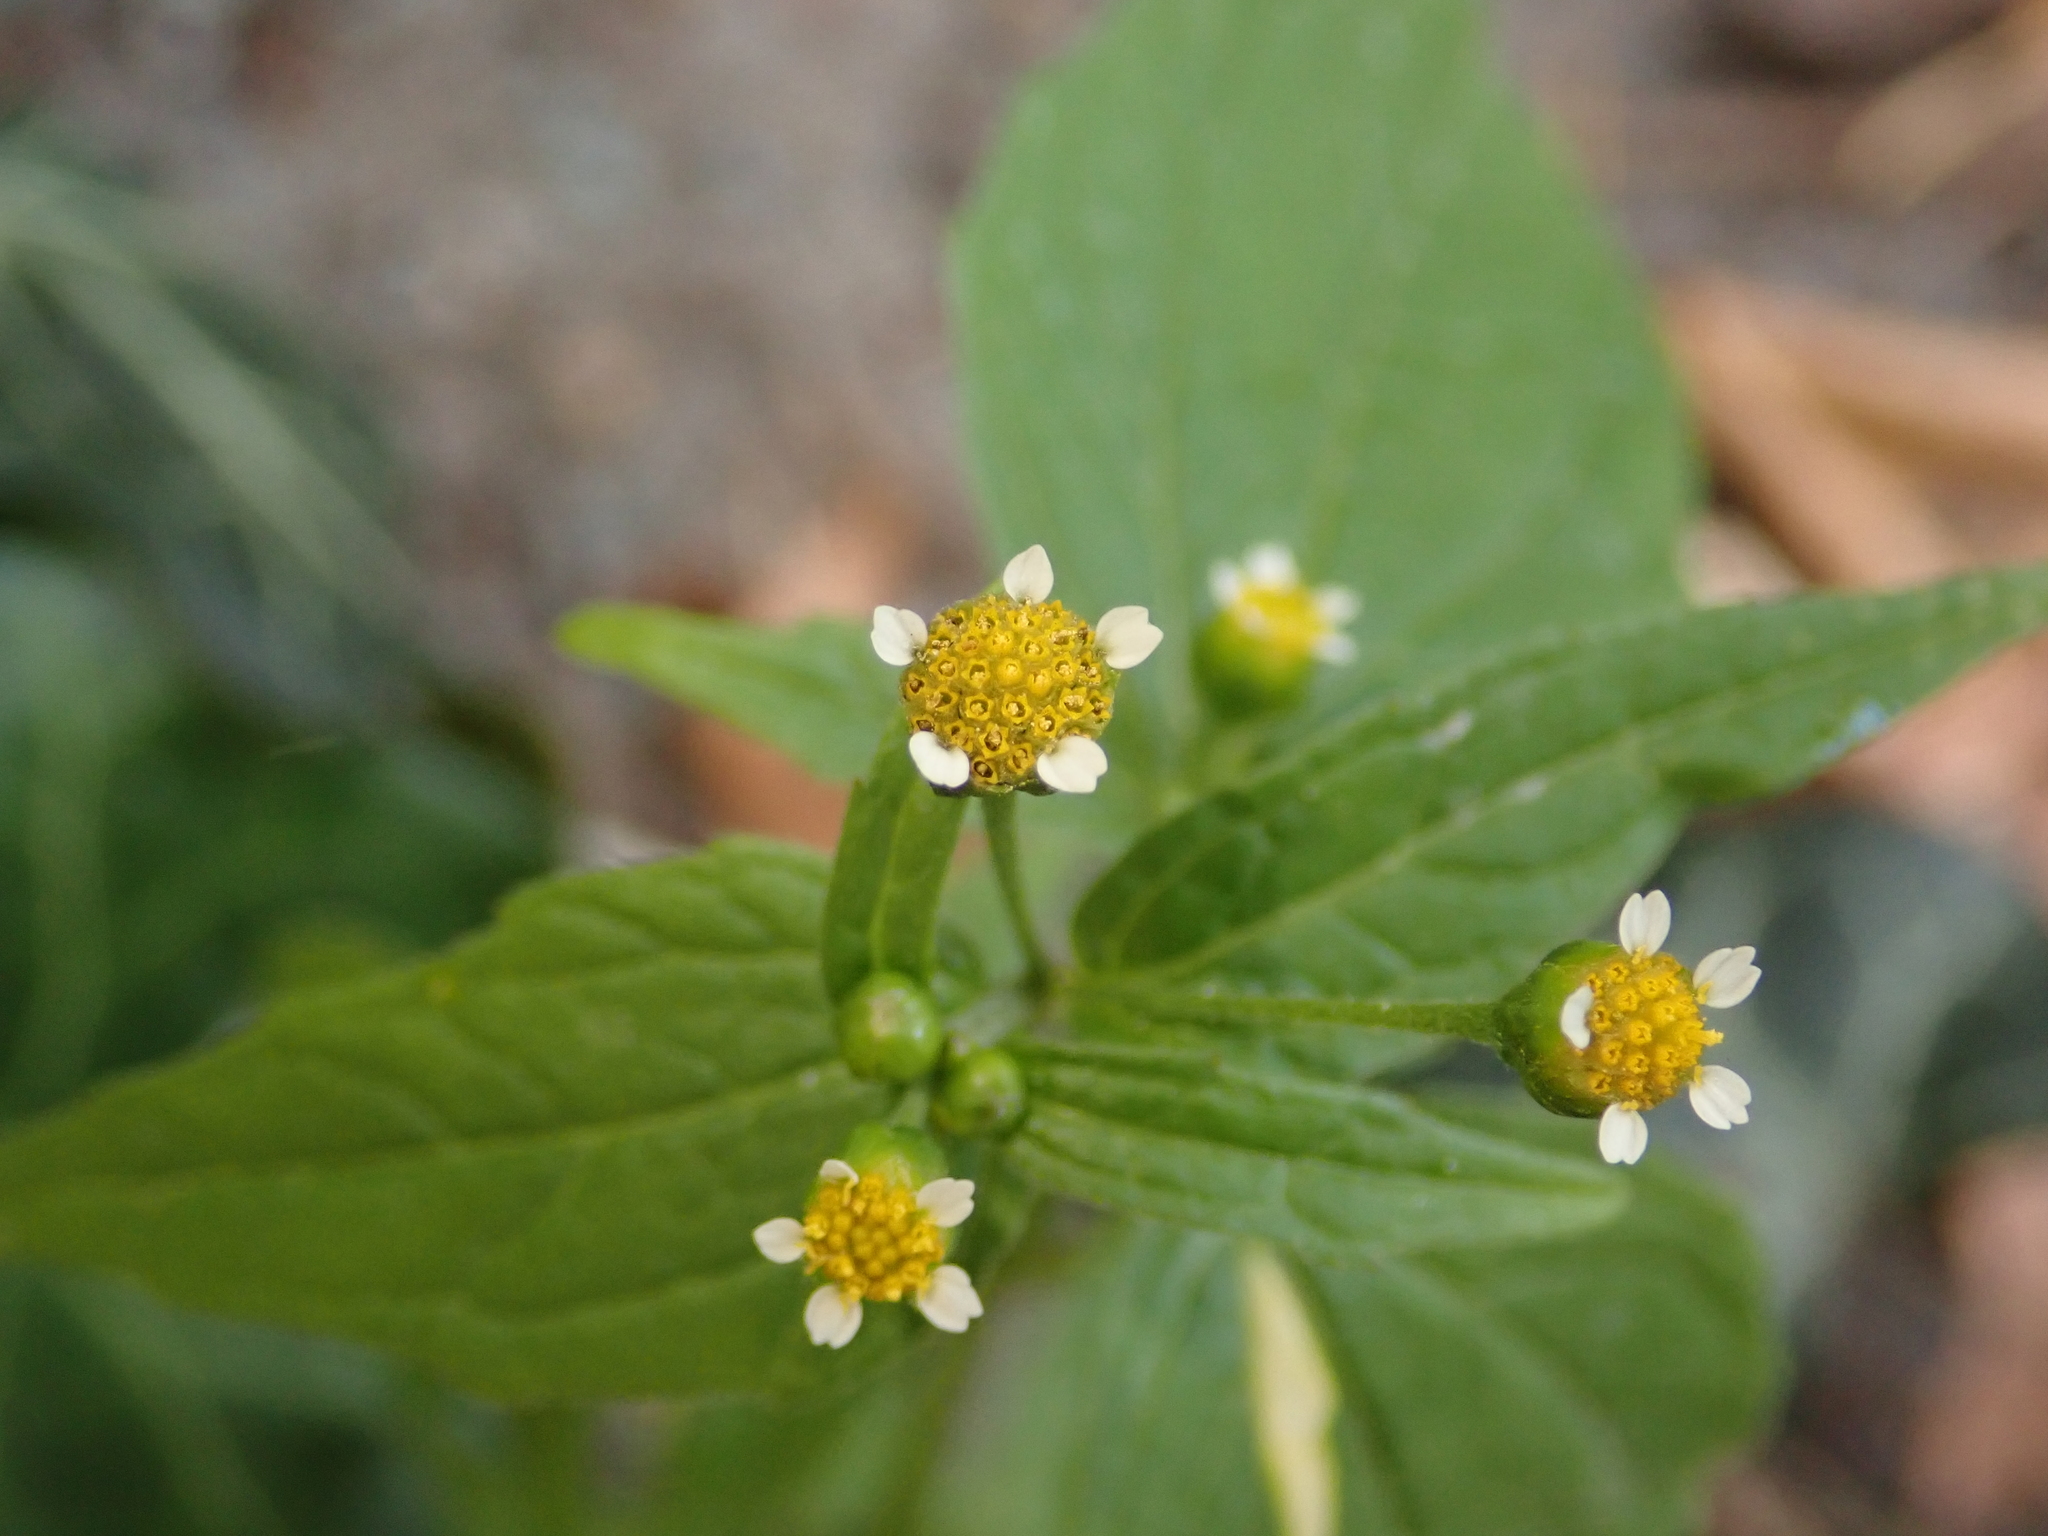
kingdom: Plantae
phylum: Tracheophyta
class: Magnoliopsida
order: Asterales
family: Asteraceae
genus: Galinsoga
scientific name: Galinsoga parviflora
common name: Gallant soldier
